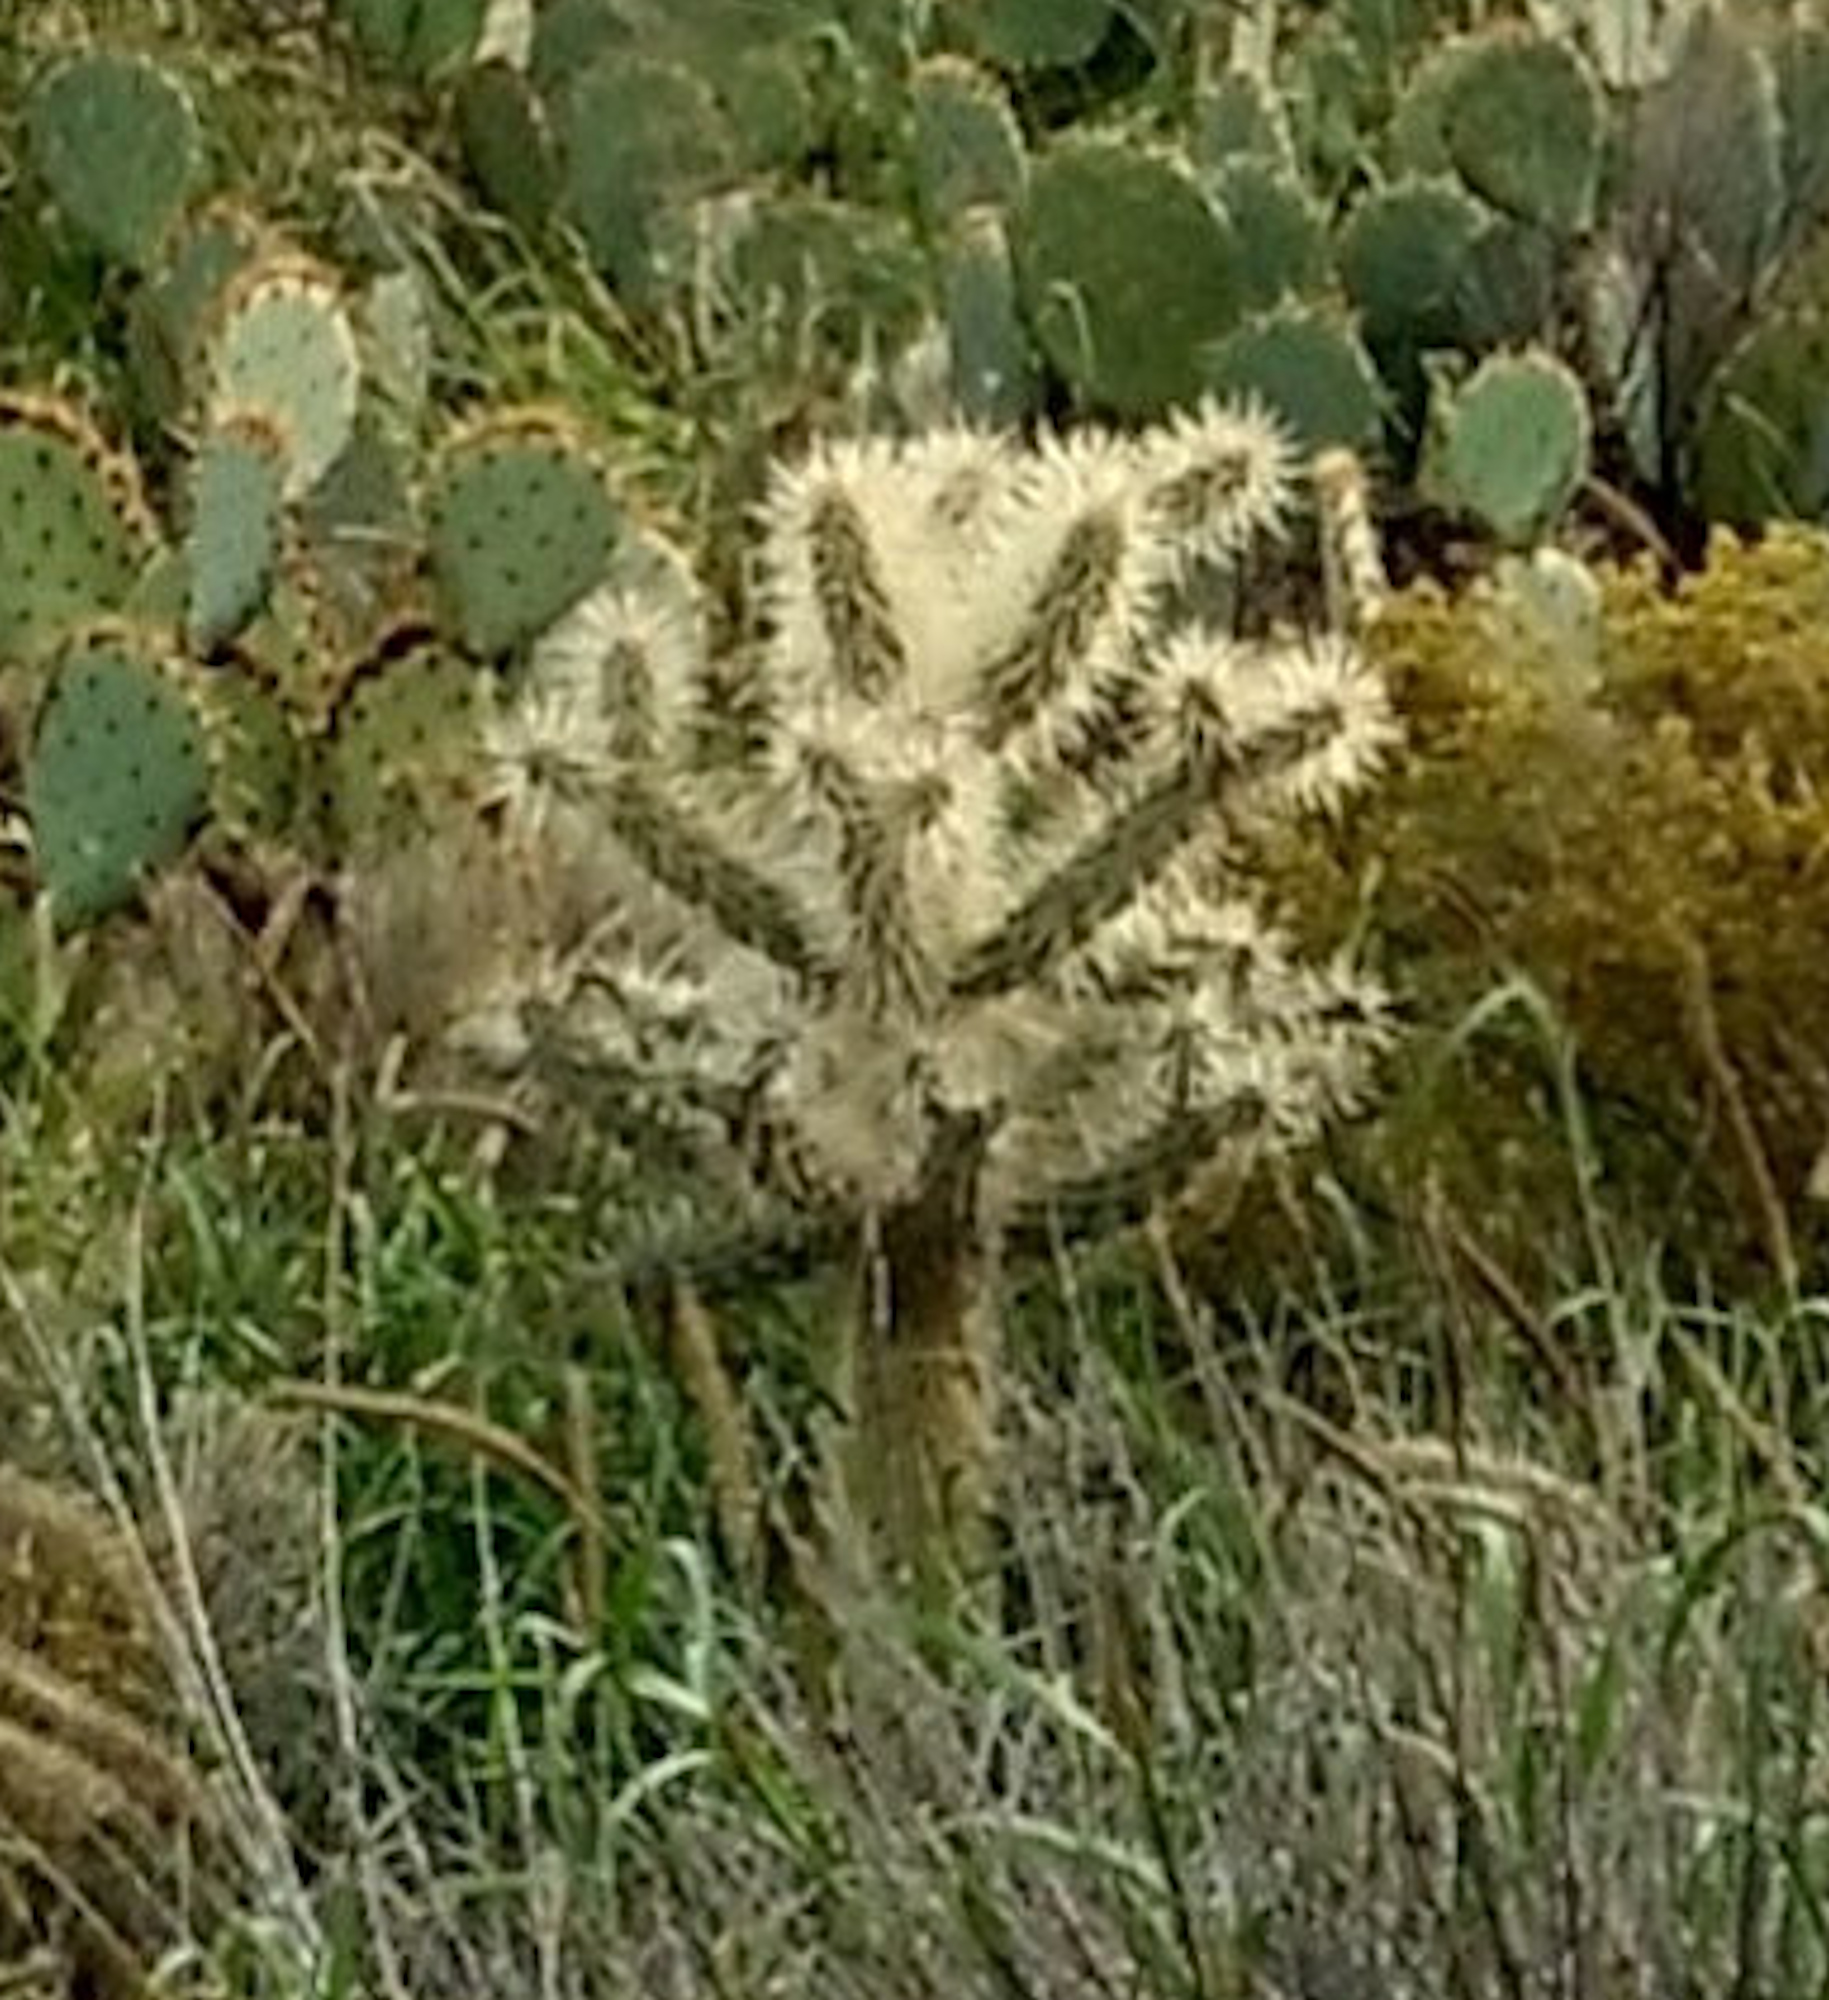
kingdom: Plantae
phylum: Tracheophyta
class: Magnoliopsida
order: Caryophyllales
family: Cactaceae
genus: Cylindropuntia
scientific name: Cylindropuntia fulgida
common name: Jumping cholla
